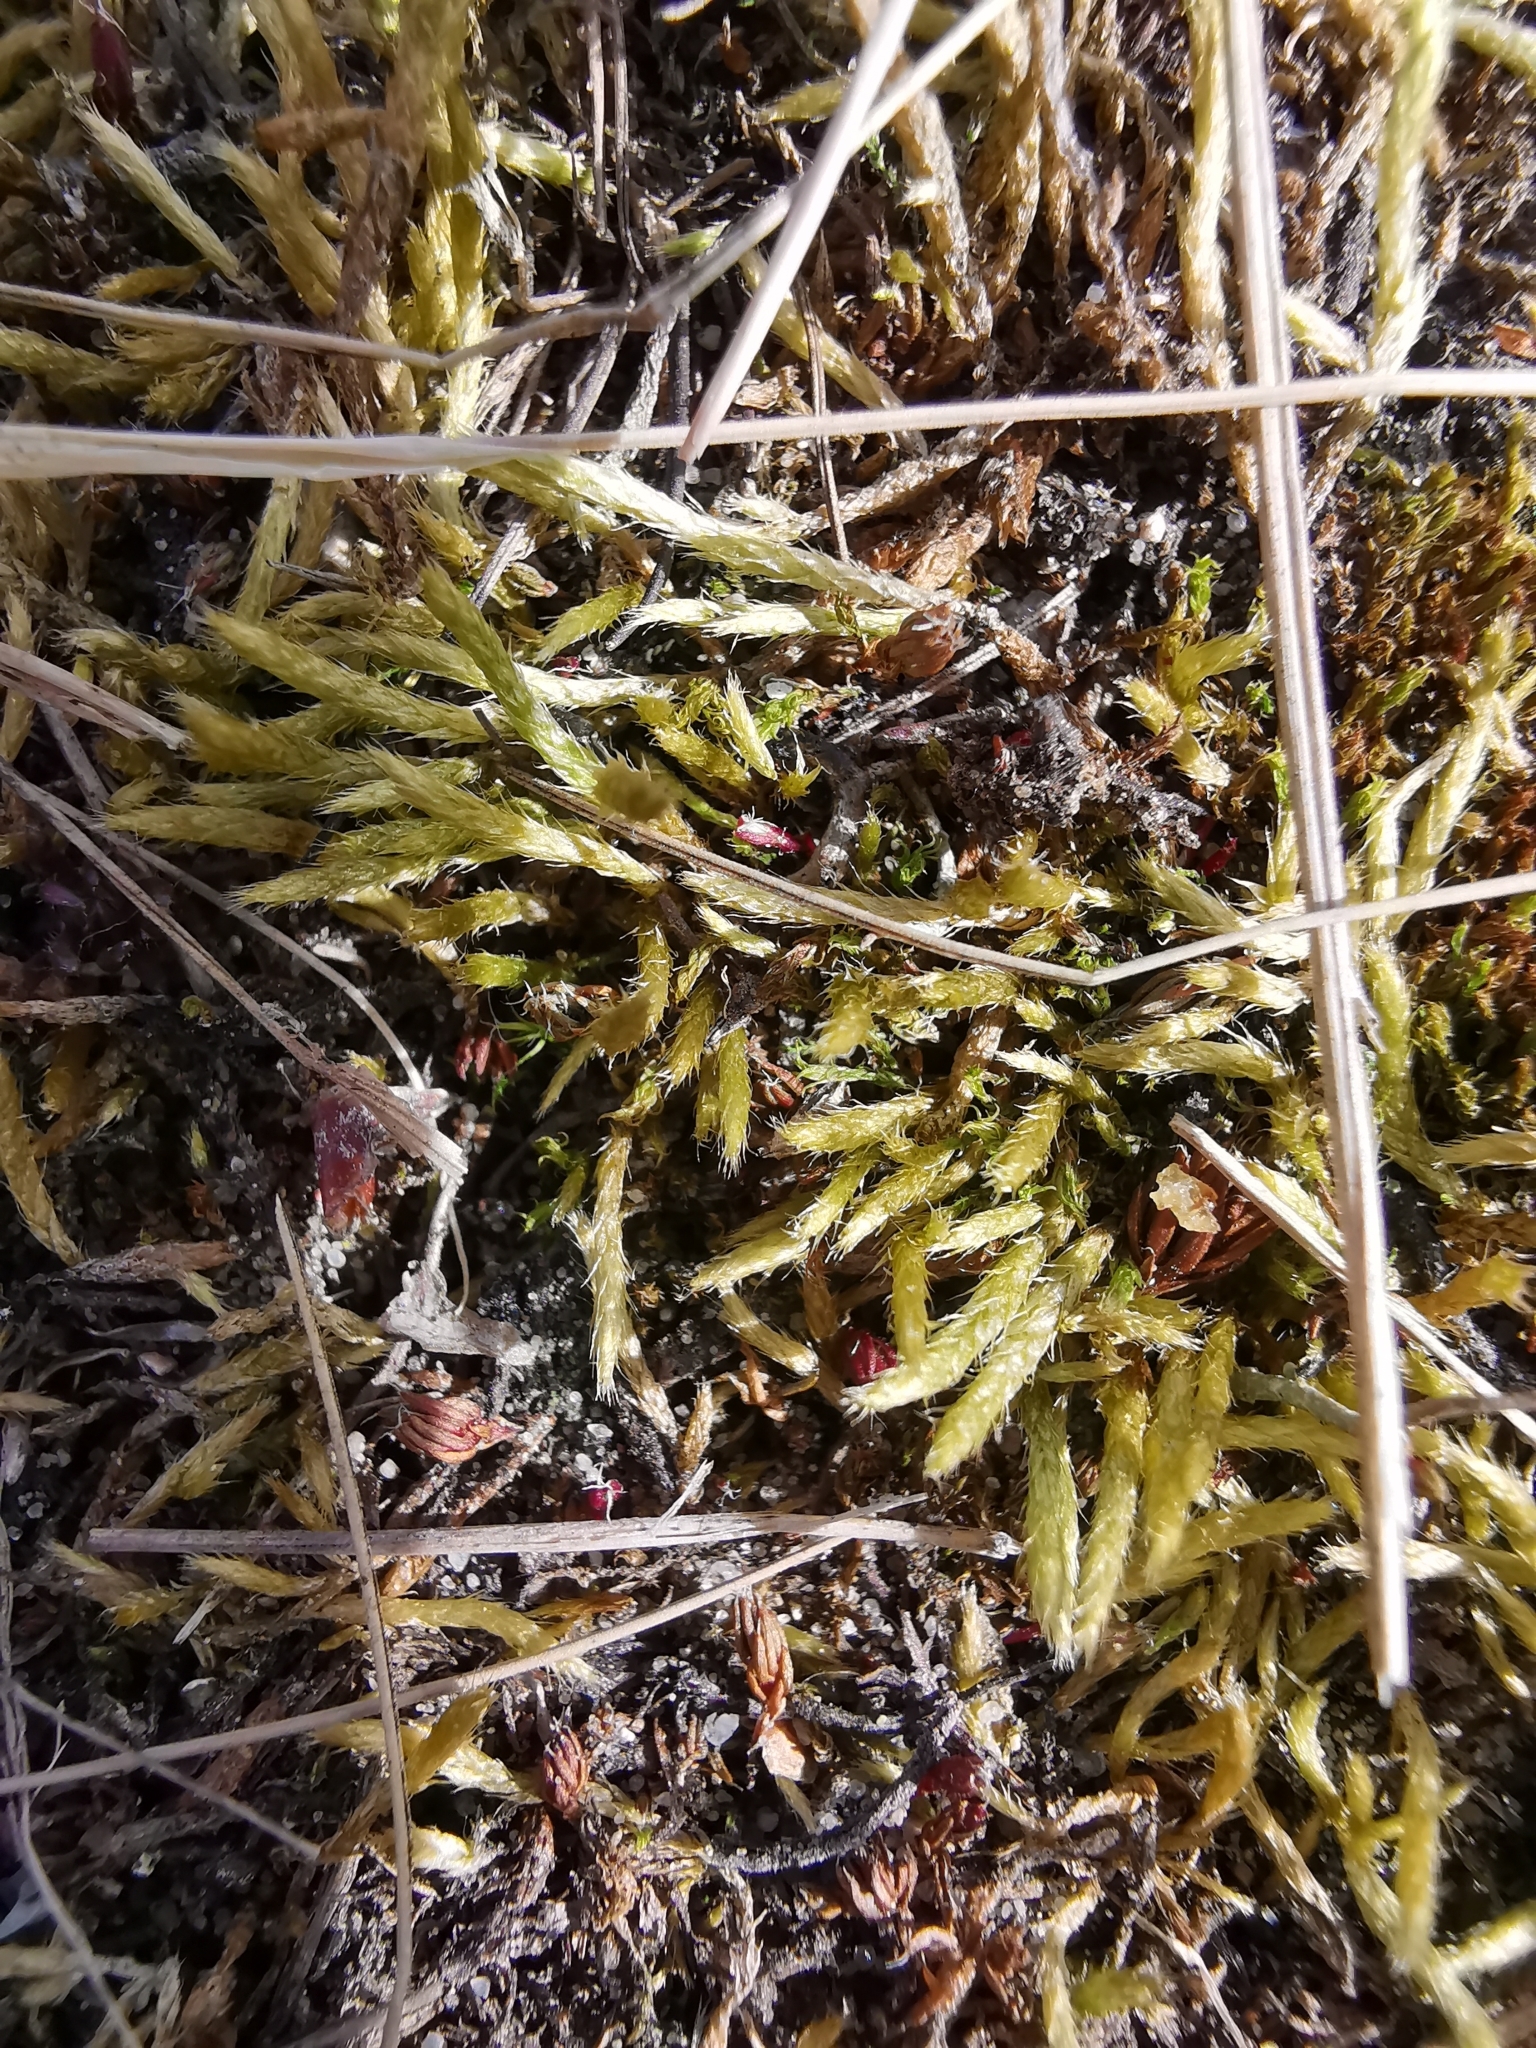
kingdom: Plantae
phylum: Bryophyta
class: Bryopsida
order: Hypnales
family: Brachytheciaceae
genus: Brachythecium
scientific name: Brachythecium albicans
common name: Whitish ragged moss
